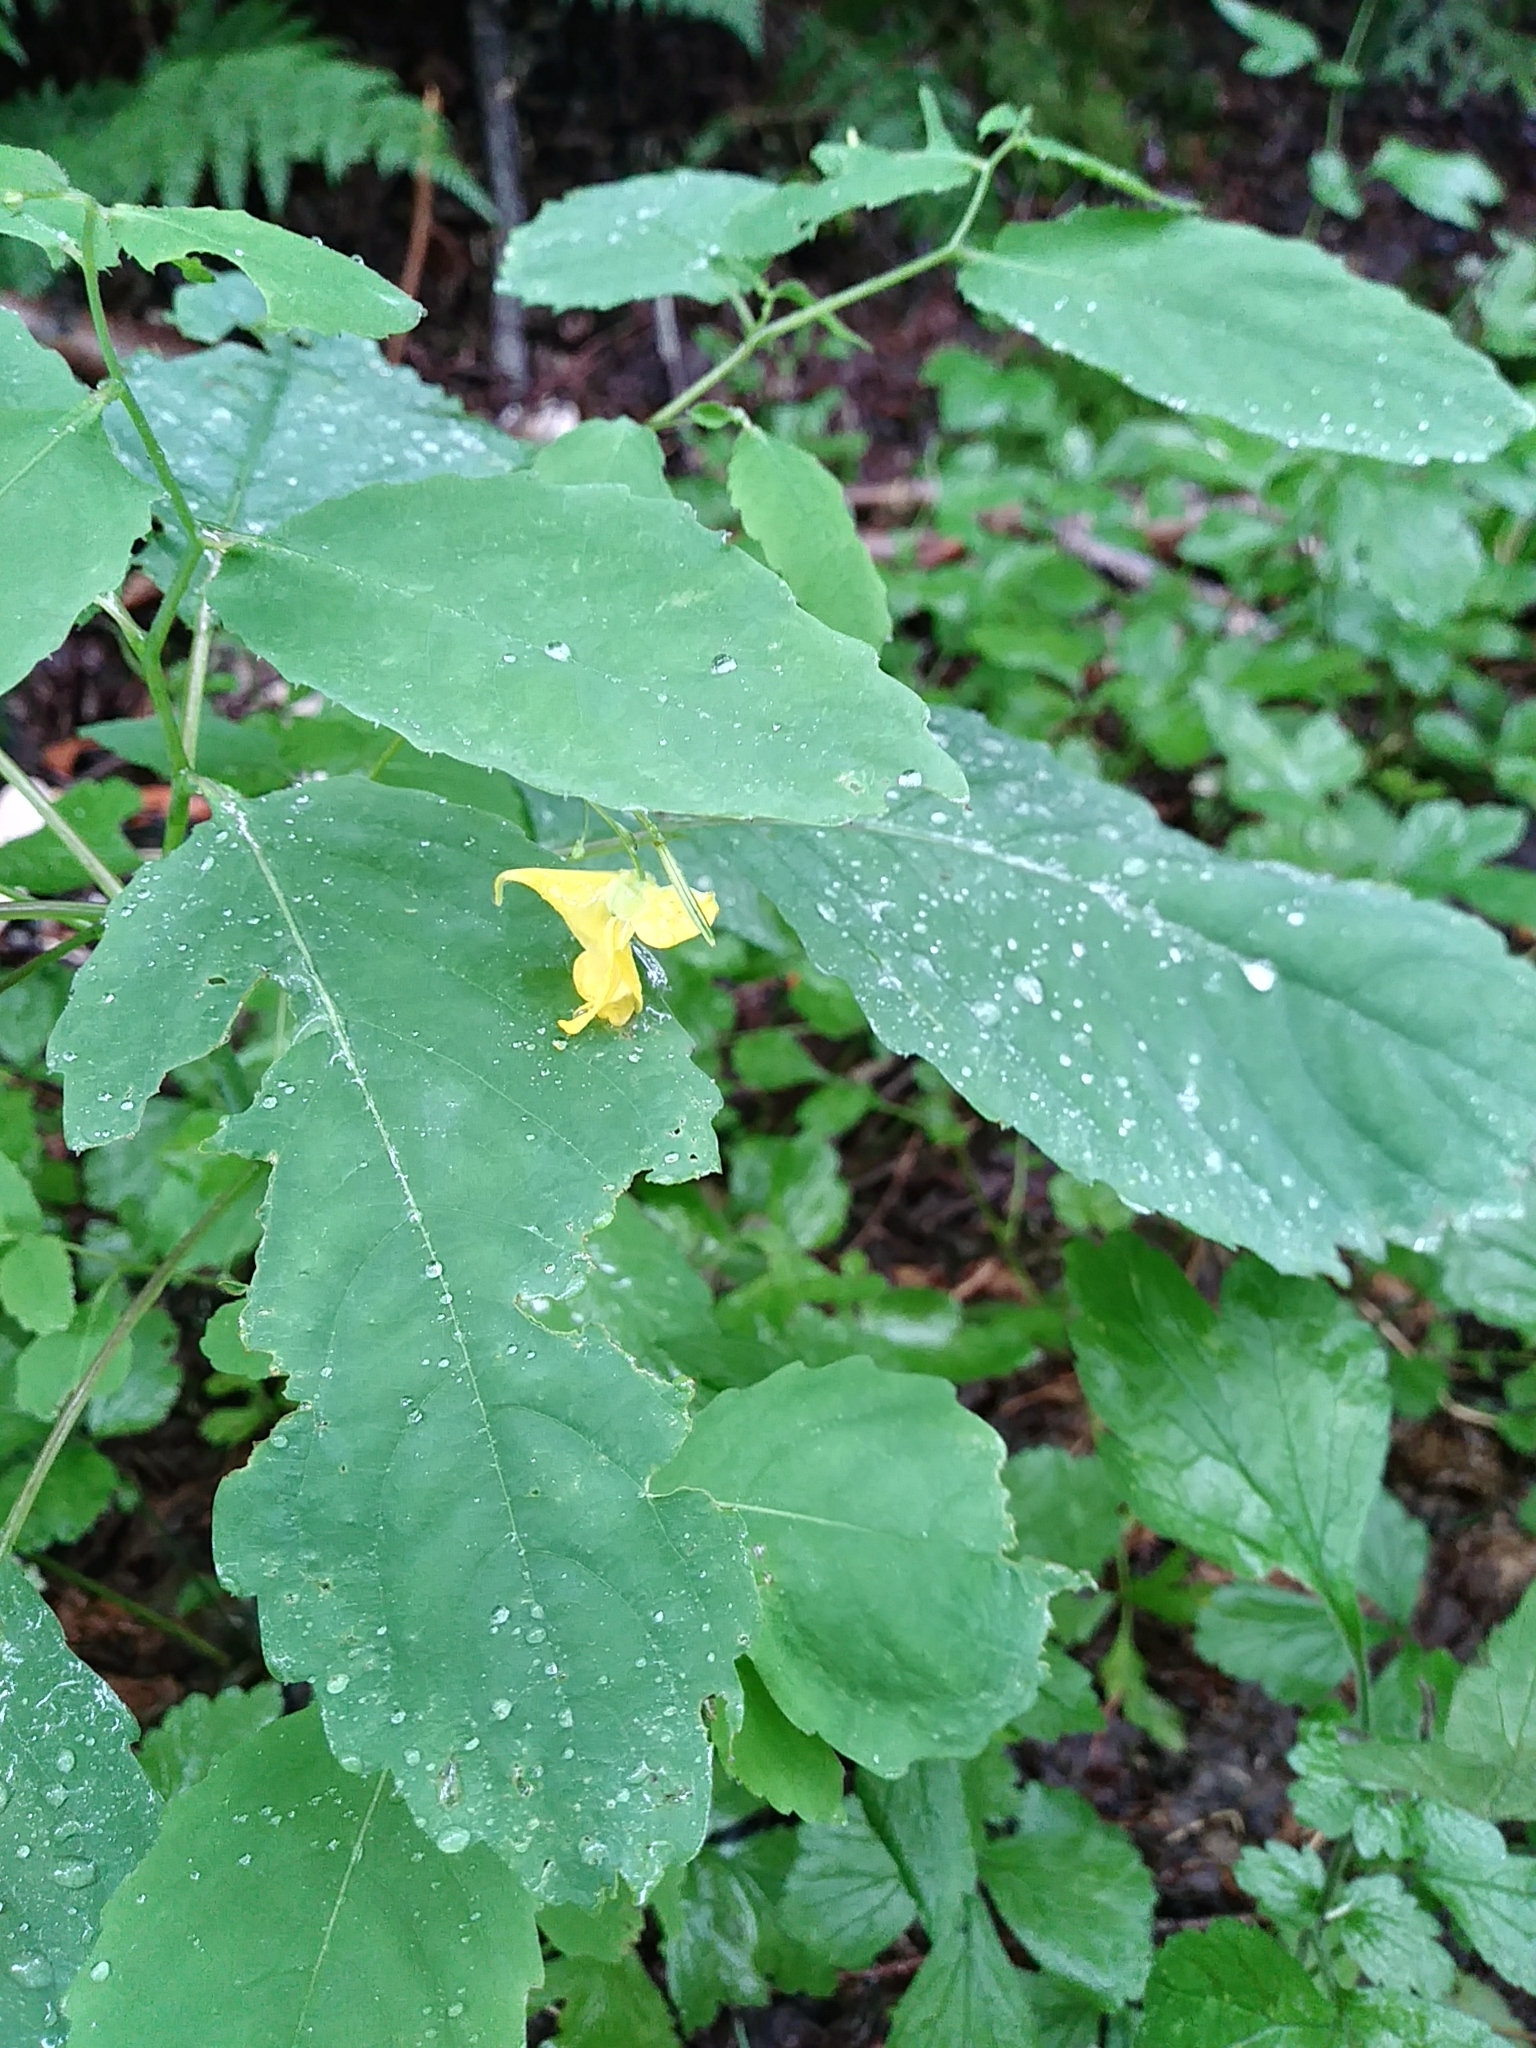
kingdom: Plantae
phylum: Tracheophyta
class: Magnoliopsida
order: Ericales
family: Balsaminaceae
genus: Impatiens
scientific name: Impatiens pallida
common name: Pale snapweed
